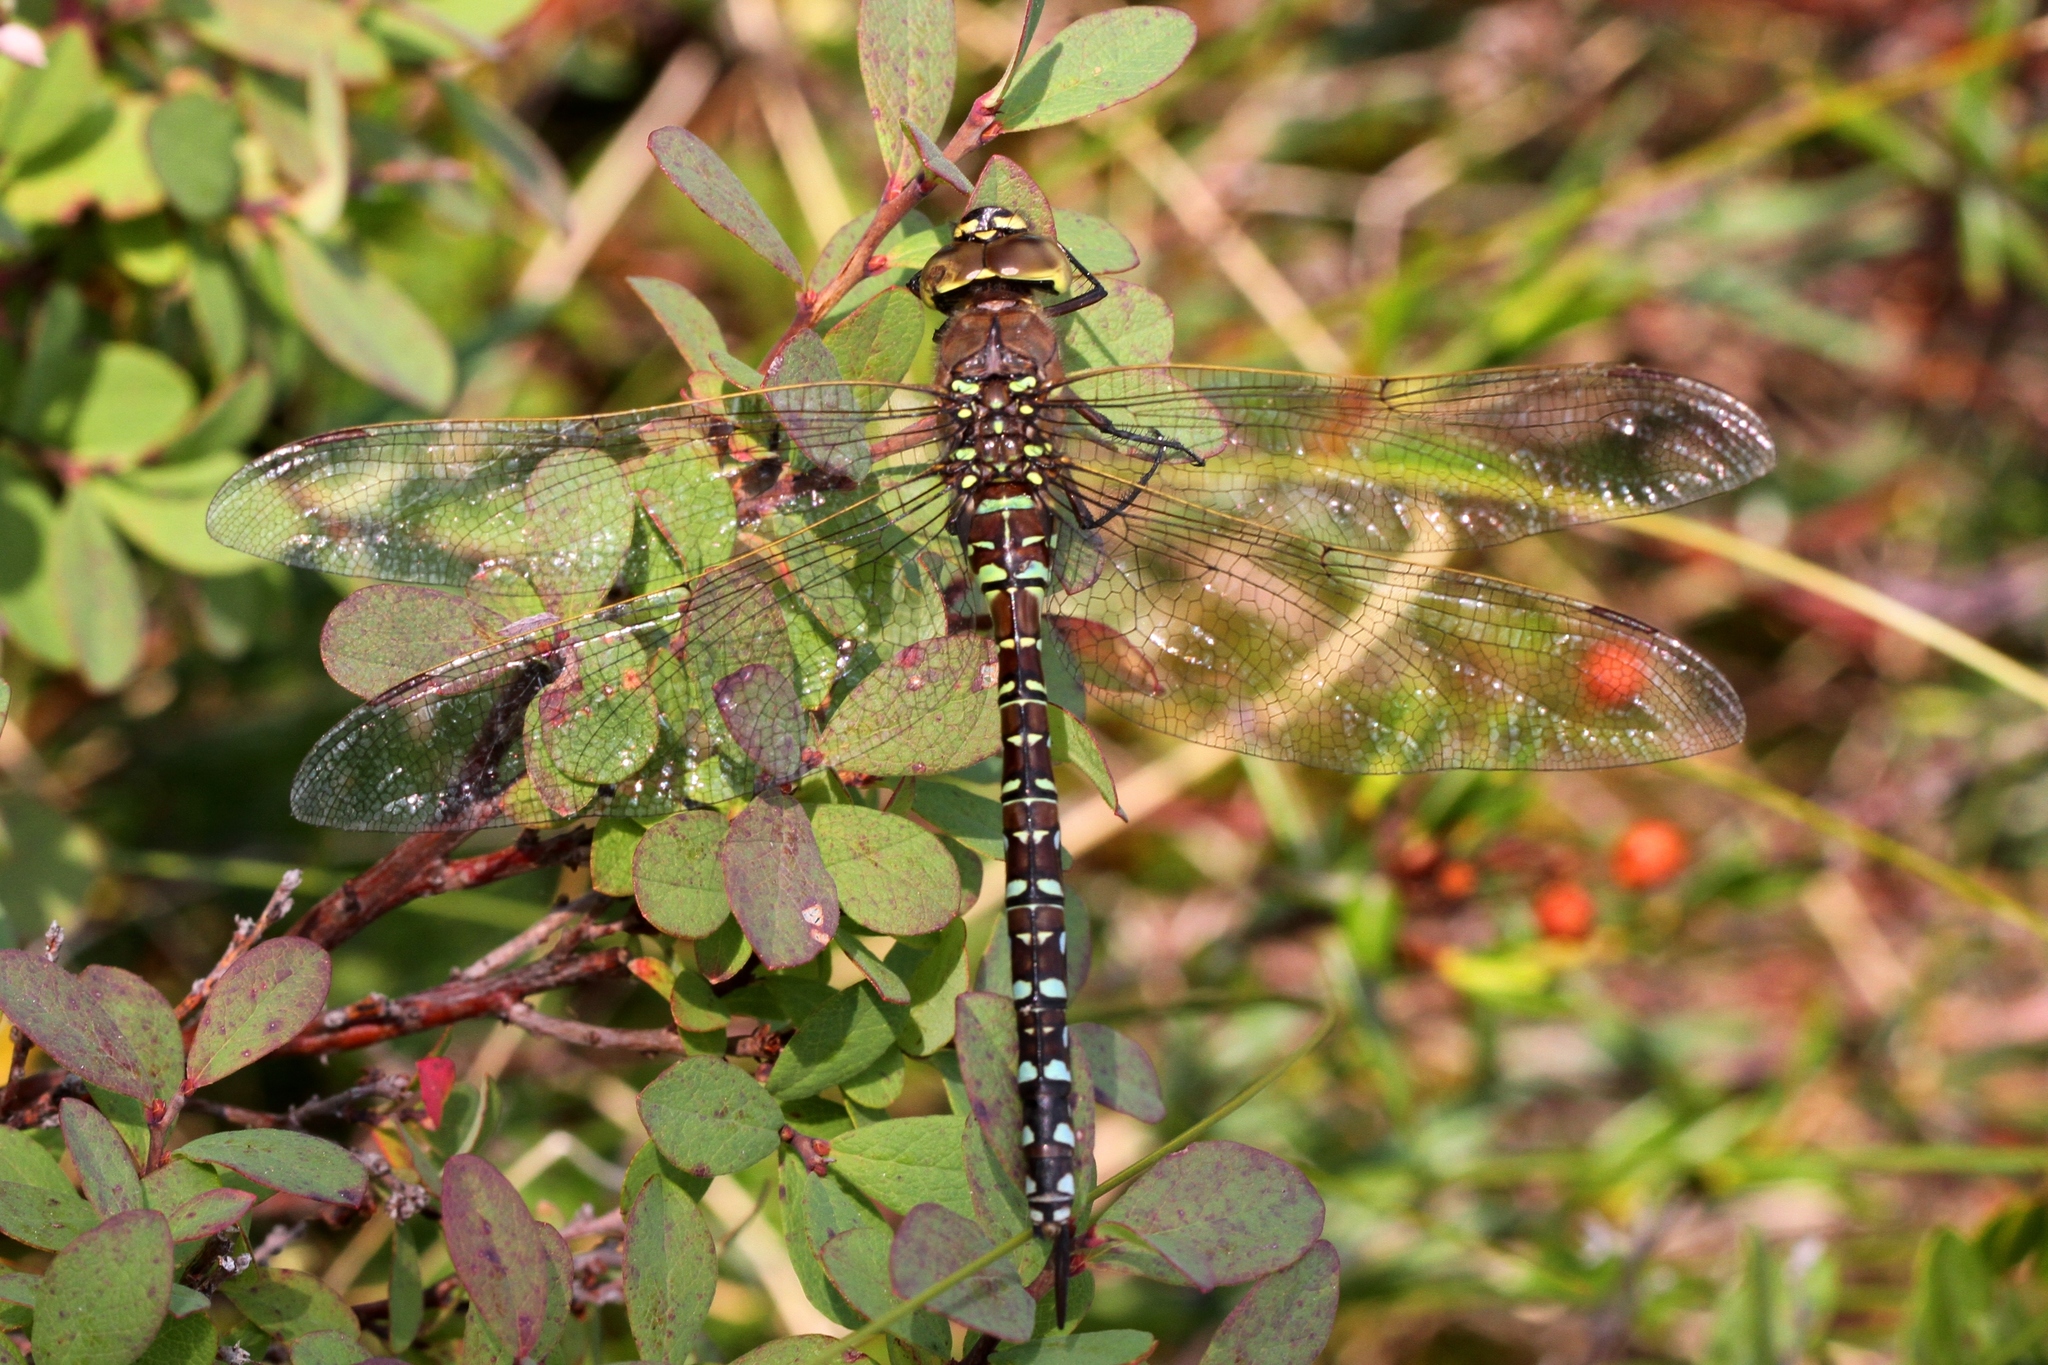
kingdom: Animalia
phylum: Arthropoda
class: Insecta
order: Odonata
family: Aeshnidae
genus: Aeshna
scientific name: Aeshna interrupta
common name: Variable darner
